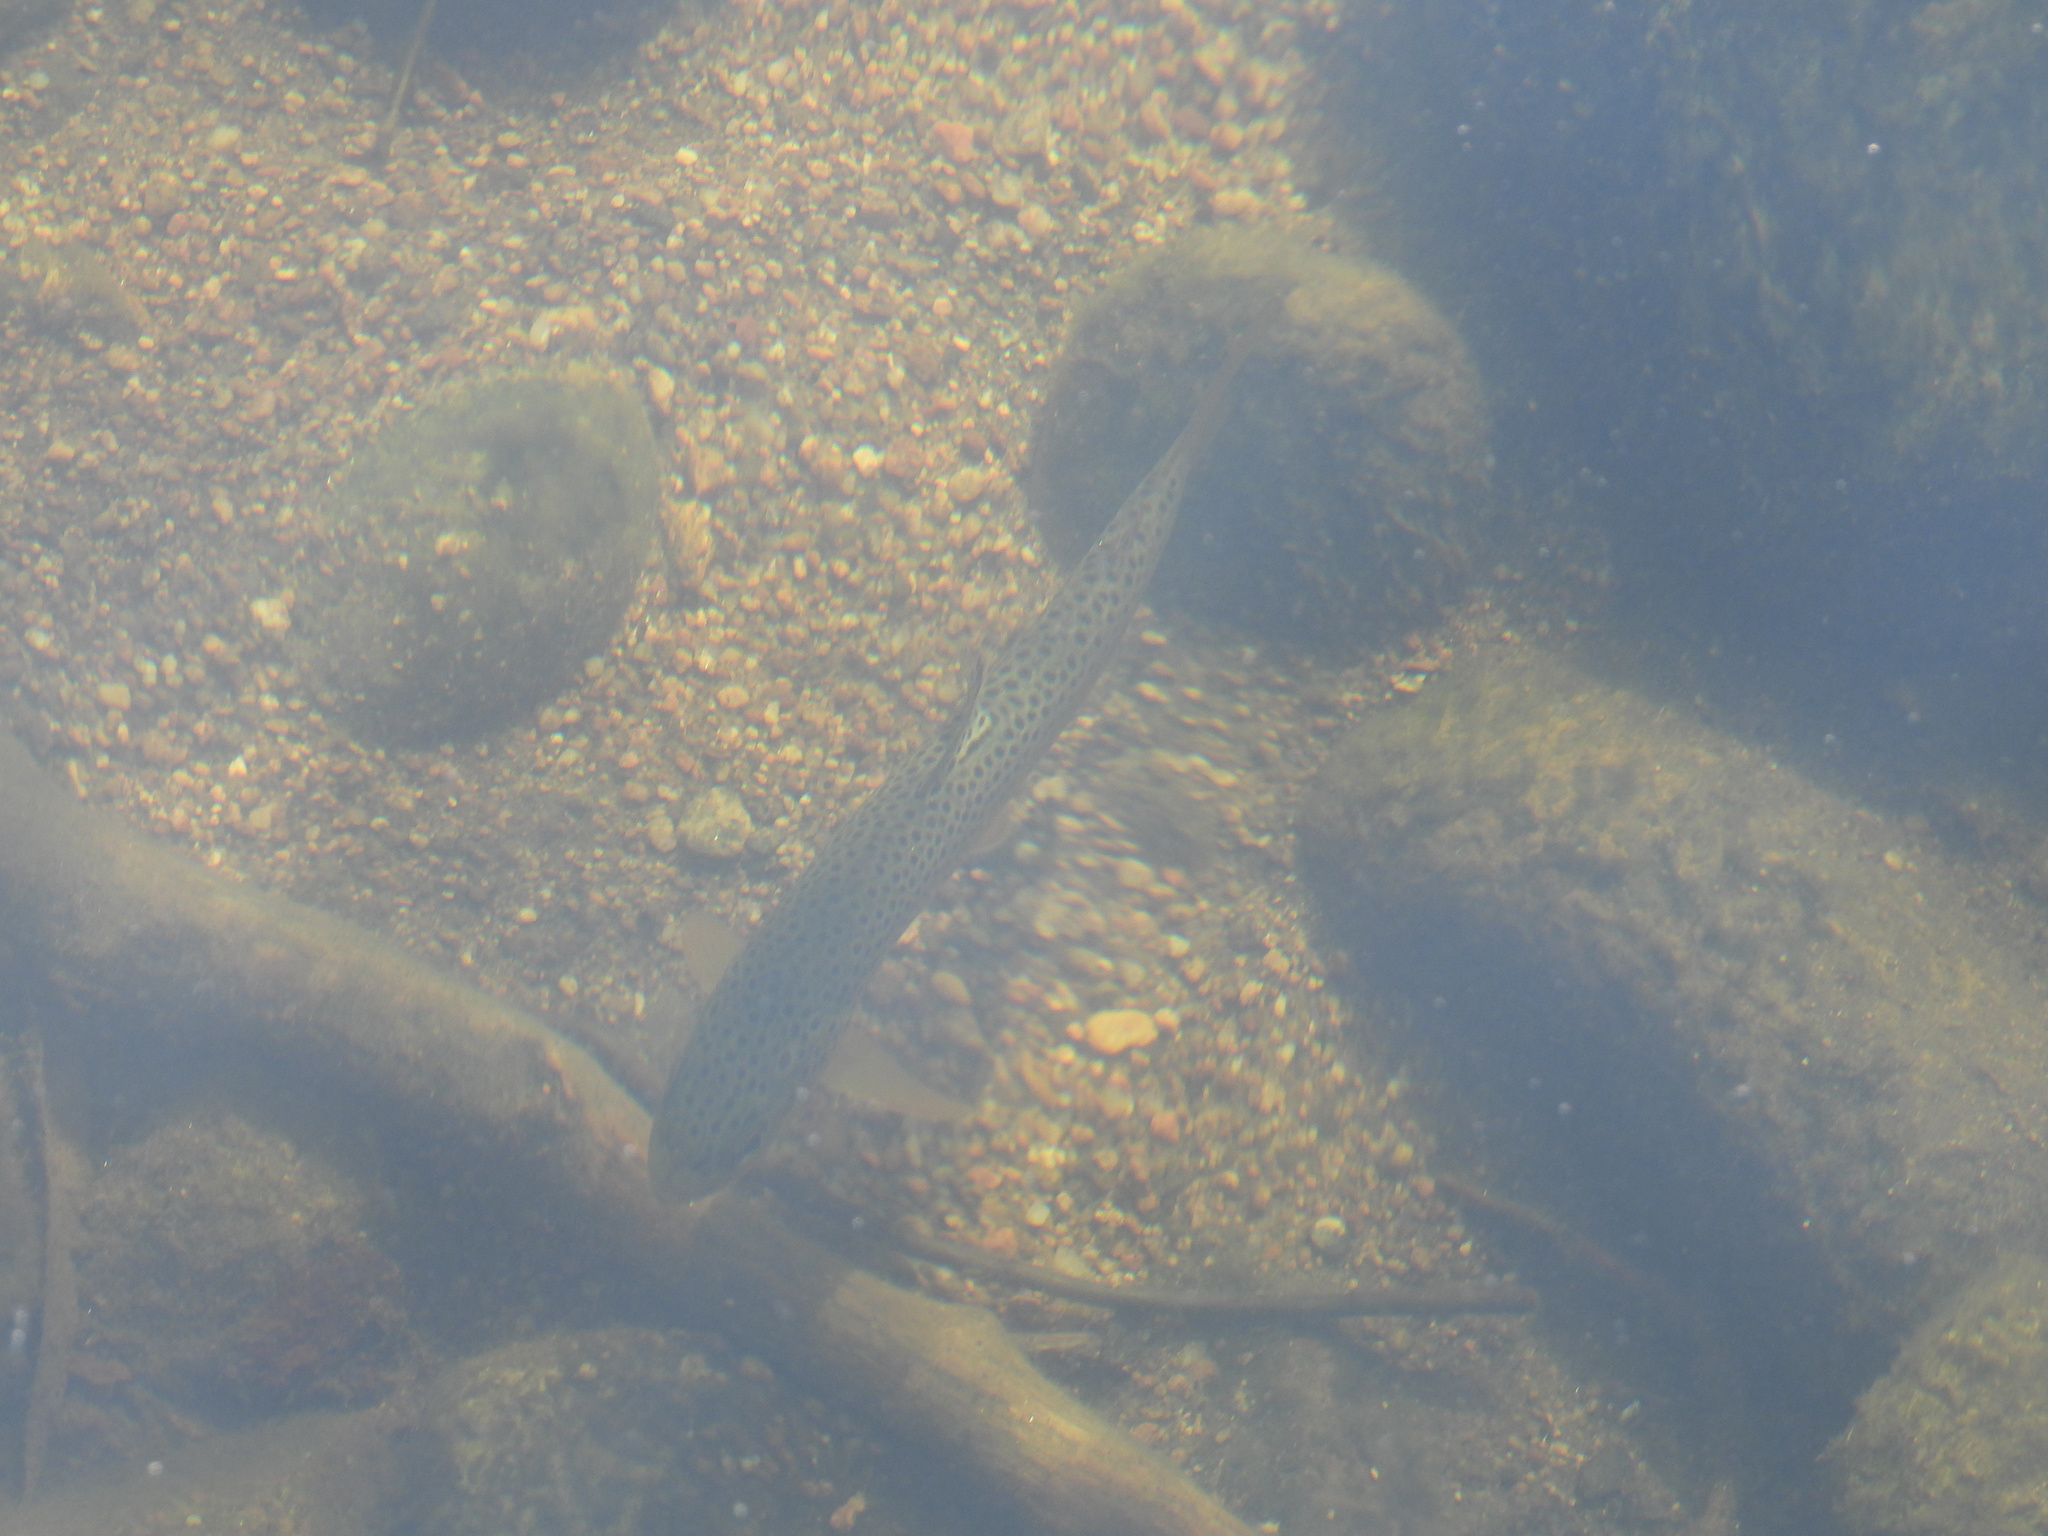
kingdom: Animalia
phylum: Chordata
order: Salmoniformes
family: Salmonidae
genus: Salmo
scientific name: Salmo trutta
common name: Brown trout
